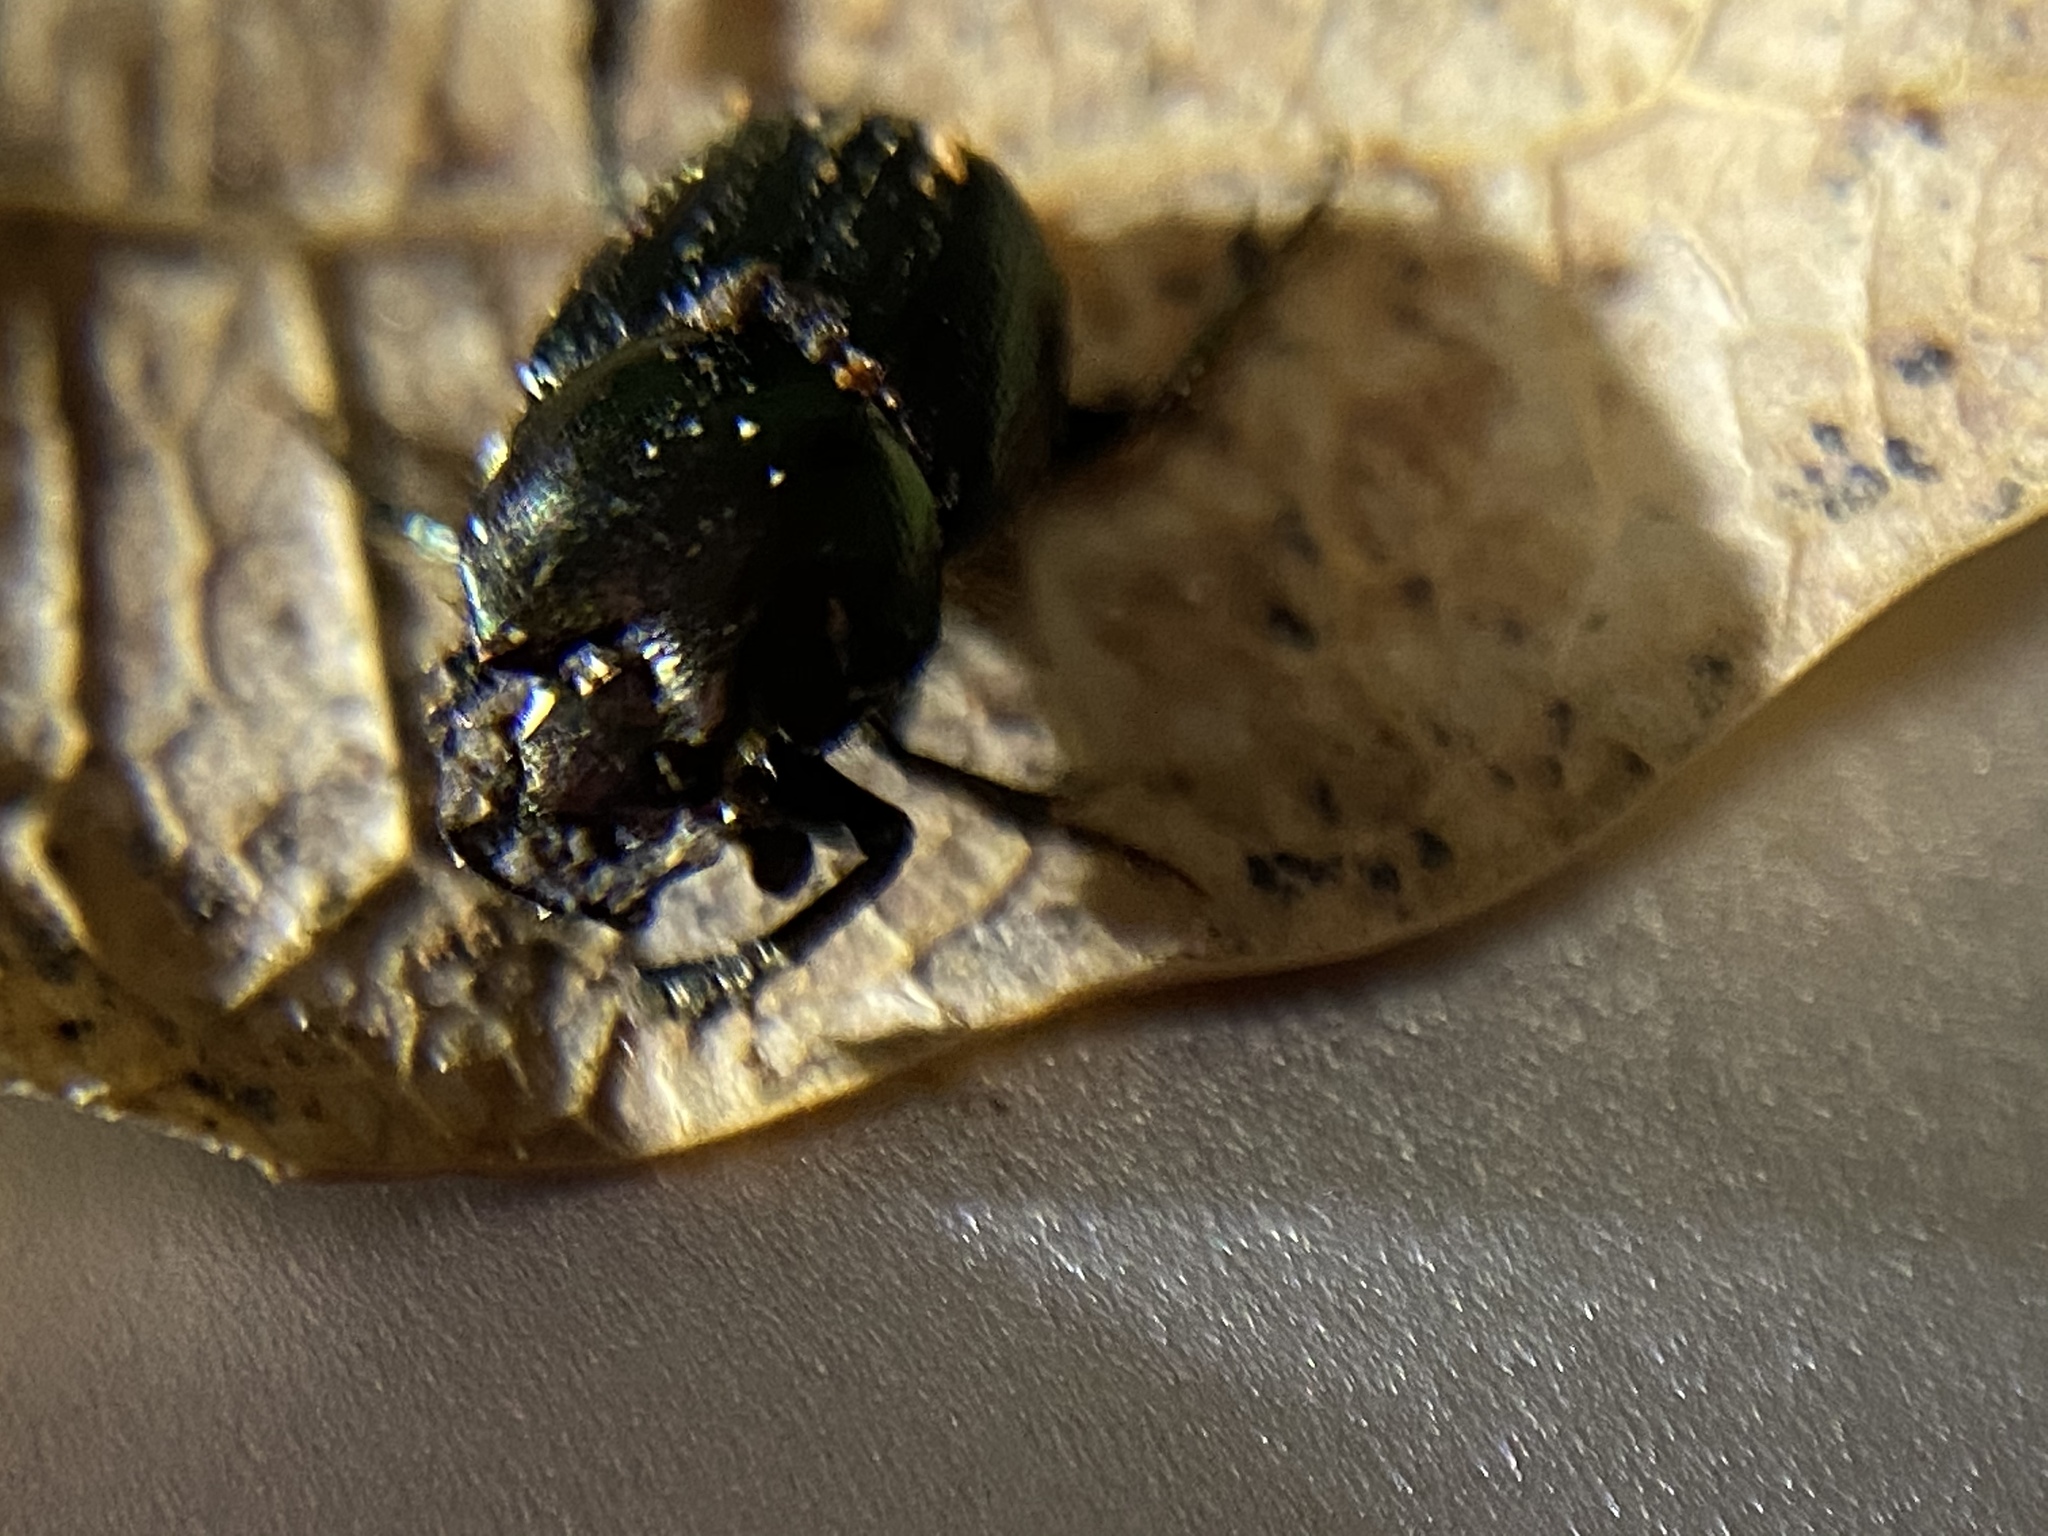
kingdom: Animalia
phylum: Arthropoda
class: Insecta
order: Coleoptera
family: Scarabaeidae
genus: Onthophagus
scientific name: Onthophagus orpheus
